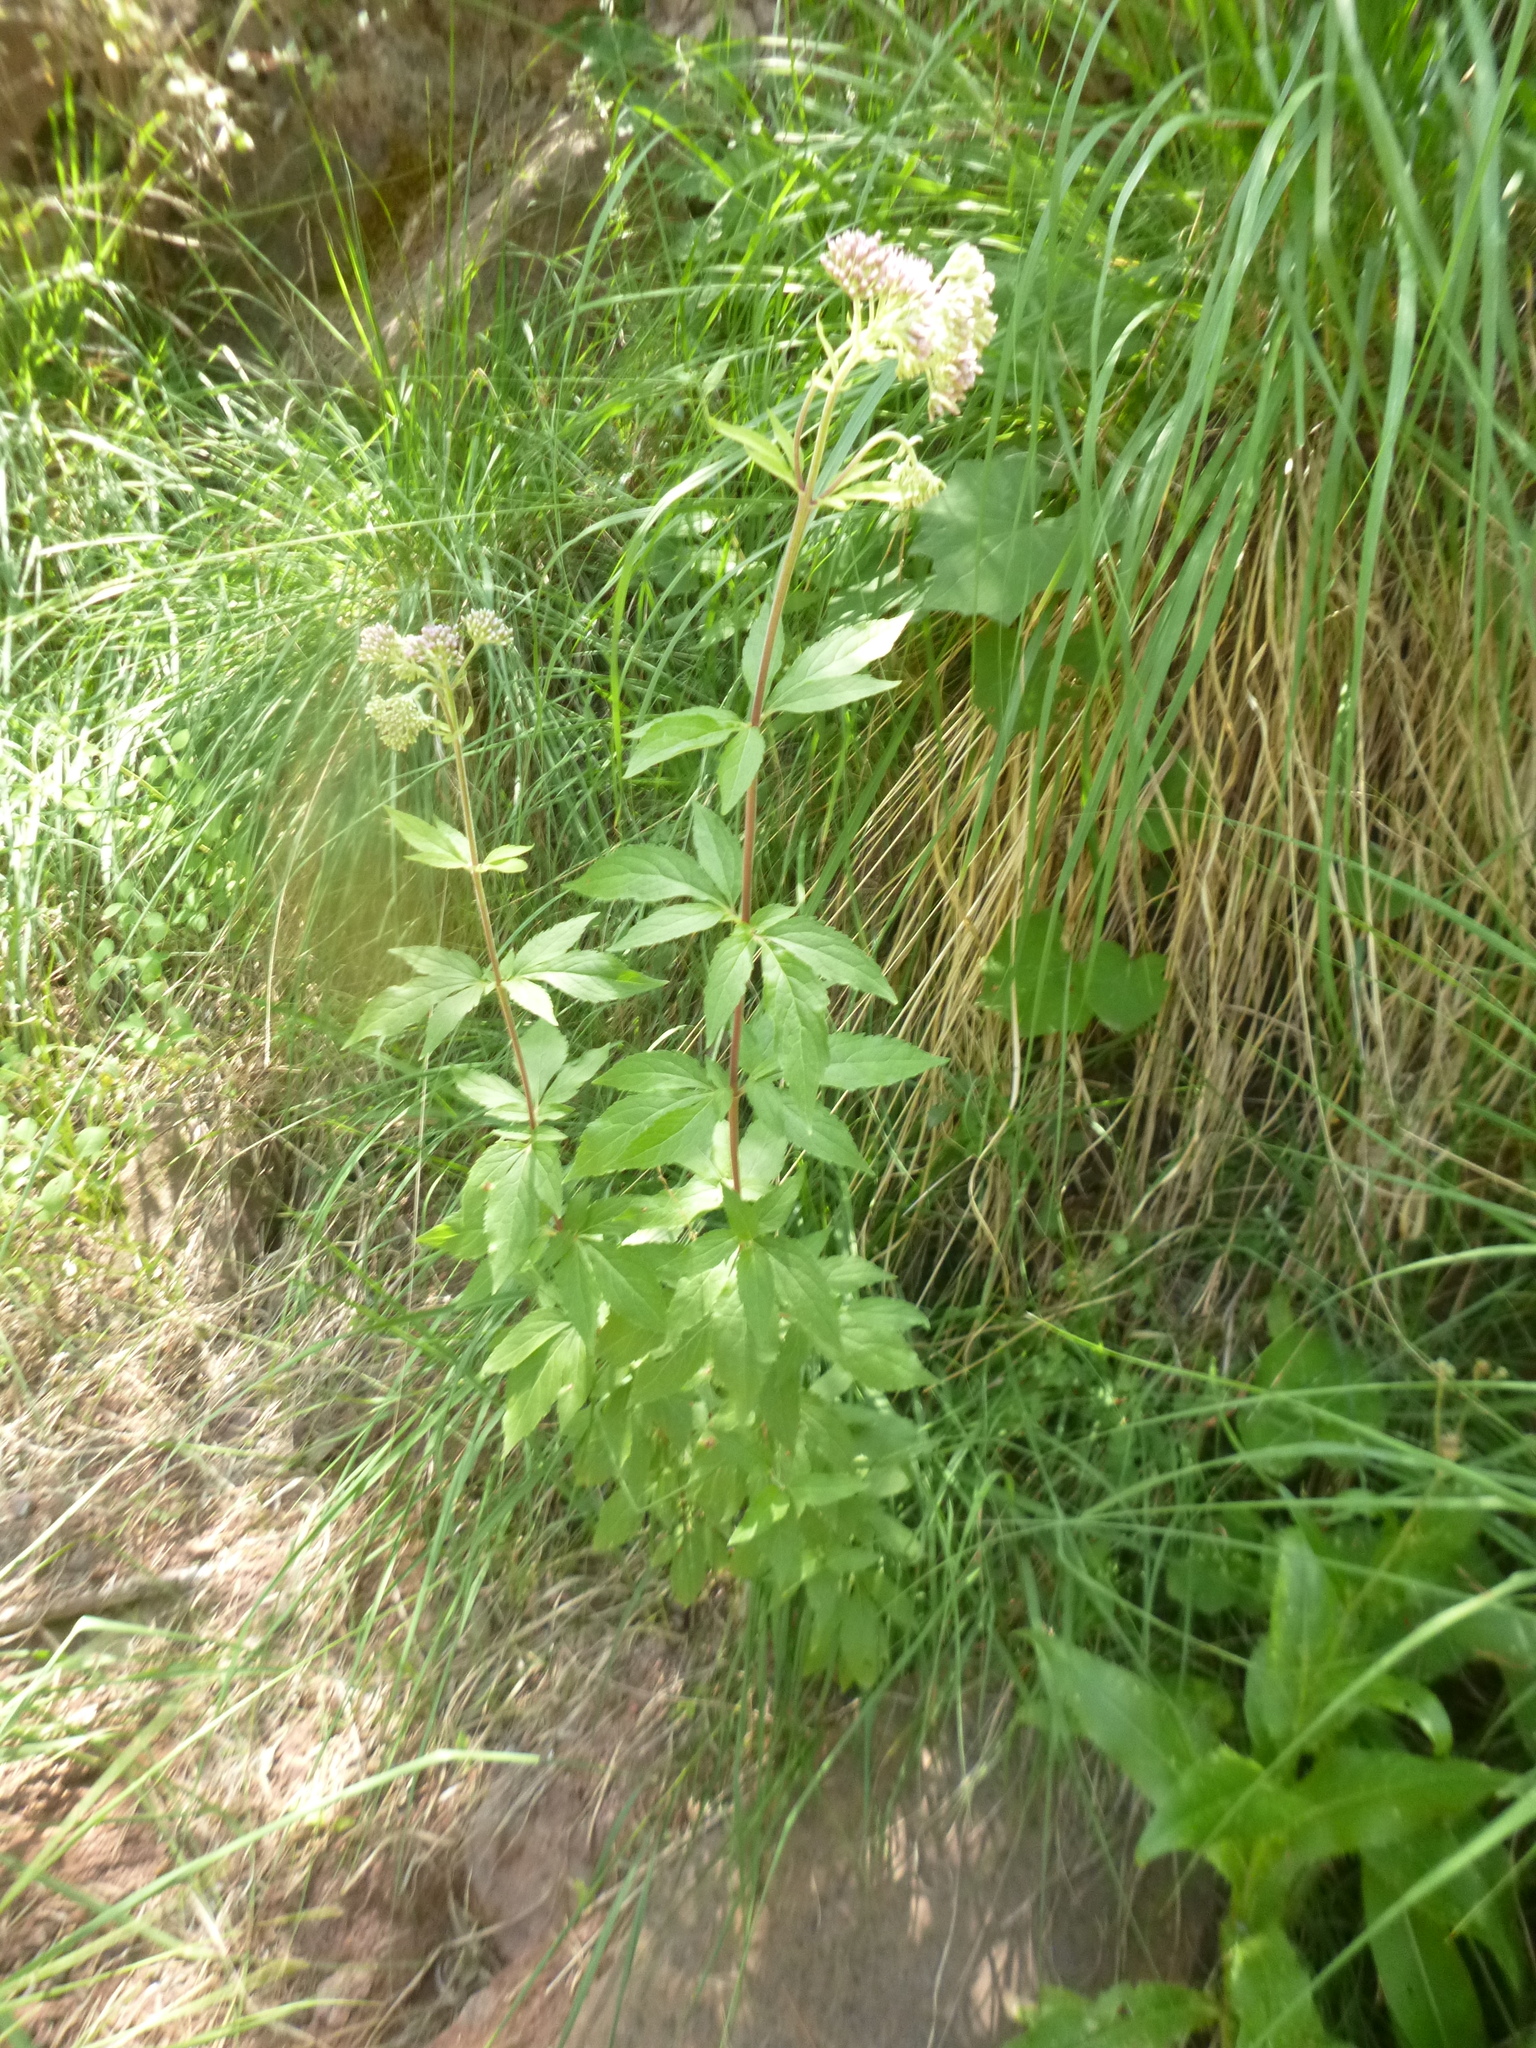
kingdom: Plantae
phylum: Tracheophyta
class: Magnoliopsida
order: Asterales
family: Asteraceae
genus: Eupatorium
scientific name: Eupatorium cannabinum
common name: Hemp-agrimony
